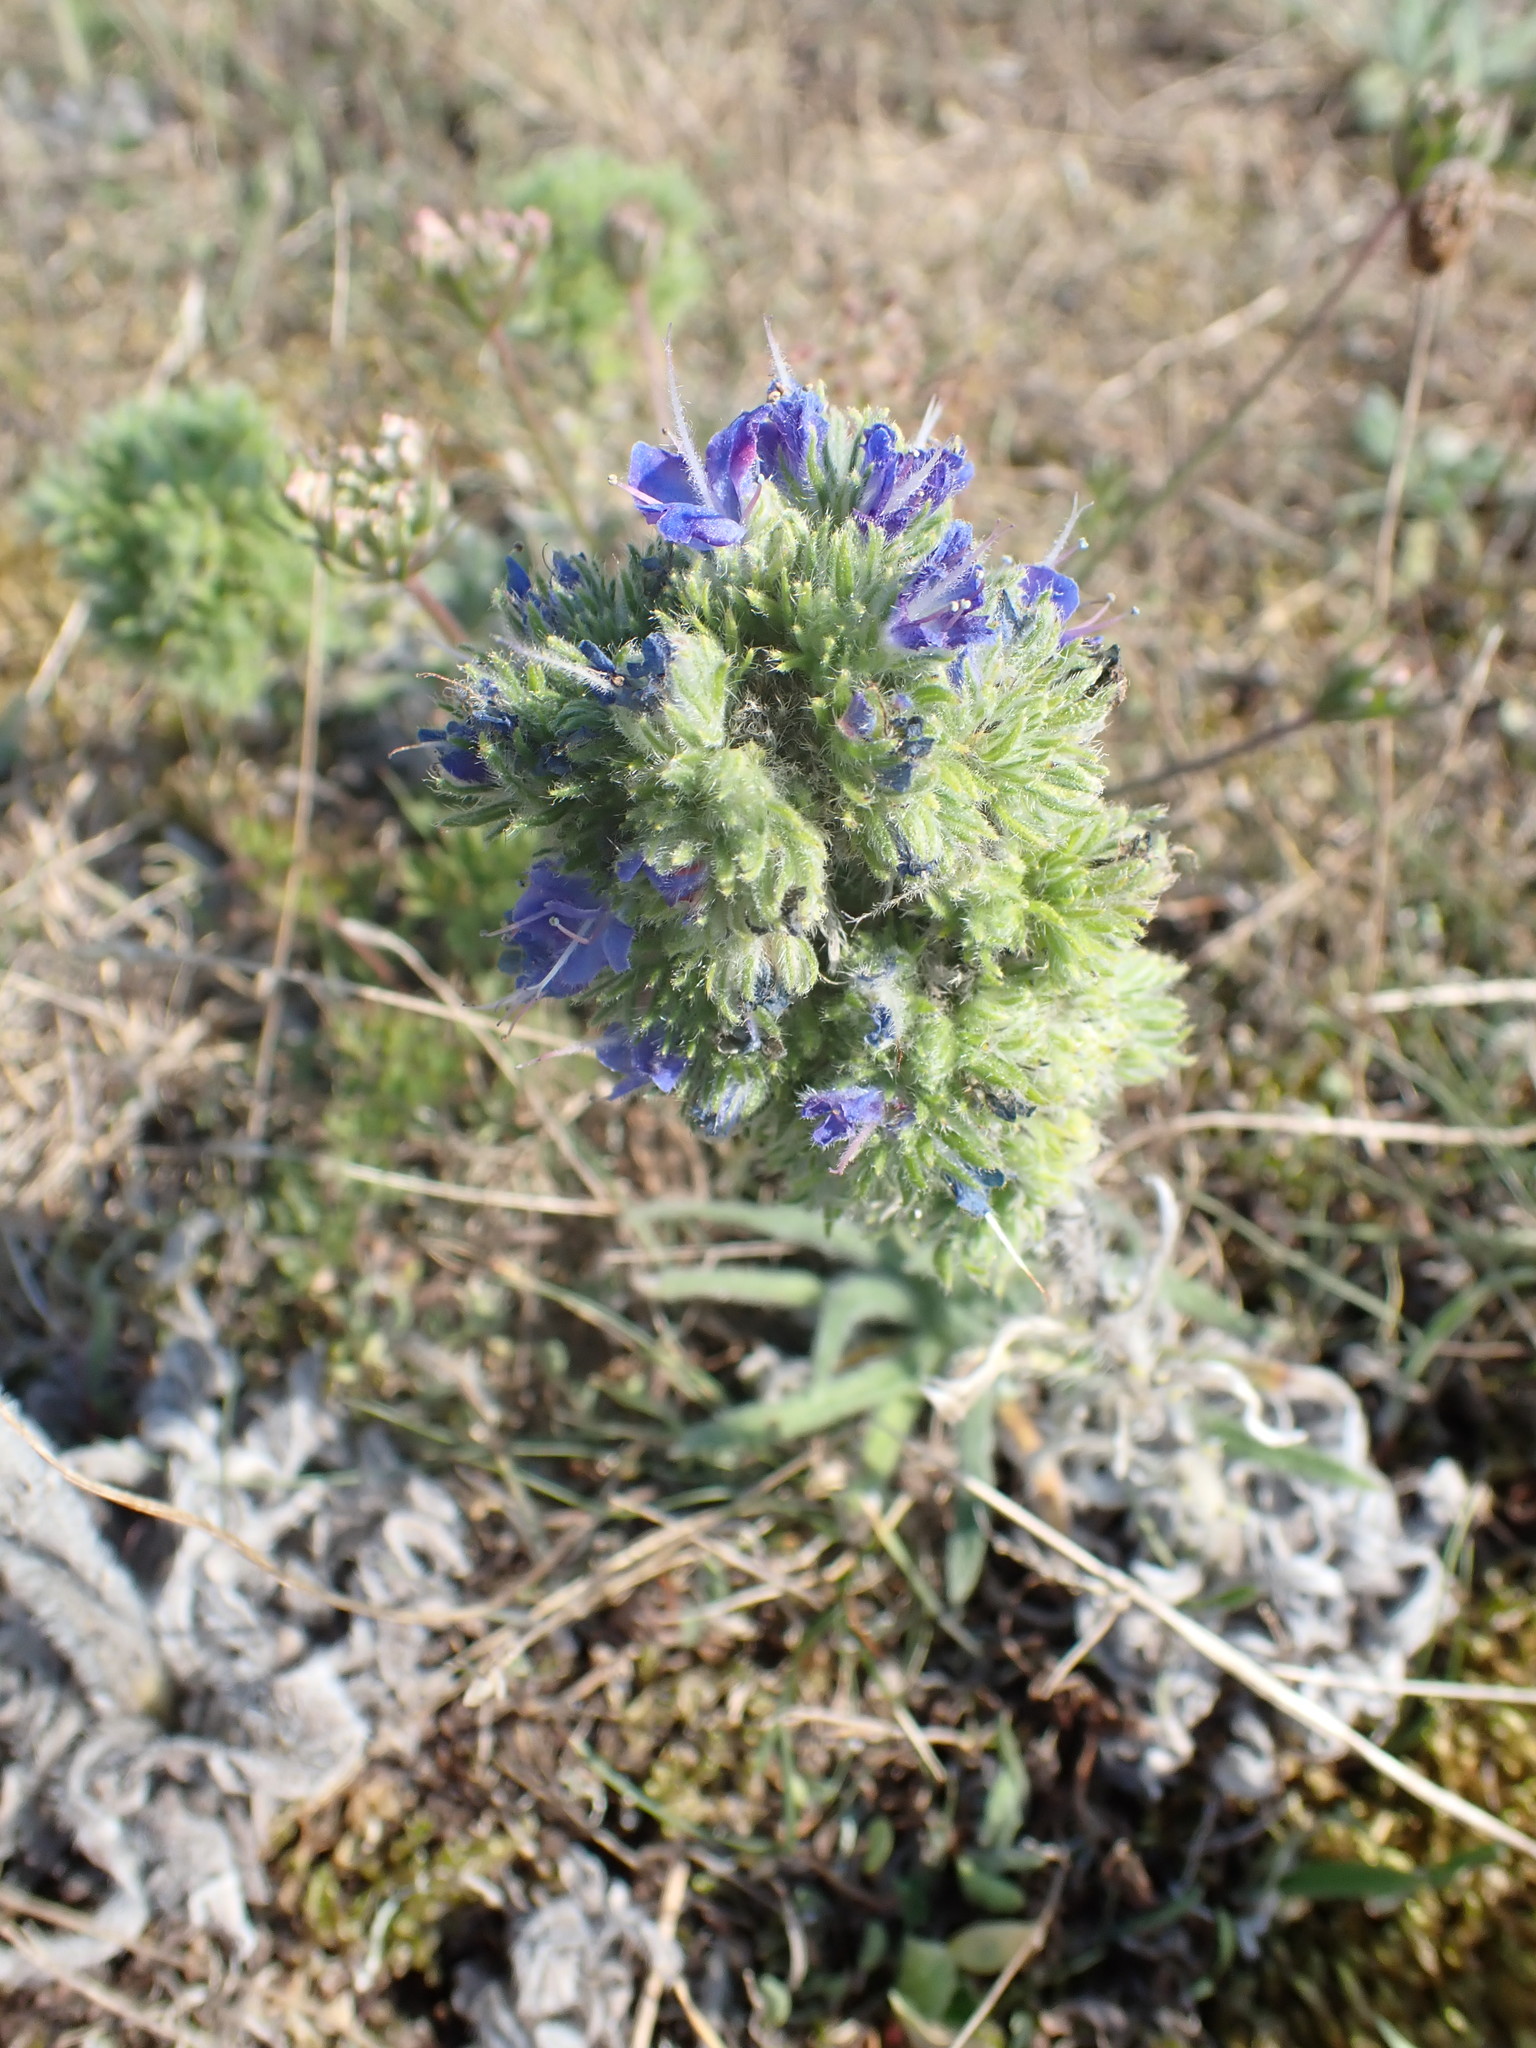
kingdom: Plantae
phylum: Tracheophyta
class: Magnoliopsida
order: Boraginales
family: Boraginaceae
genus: Echium
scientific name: Echium vulgare
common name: Common viper's bugloss
